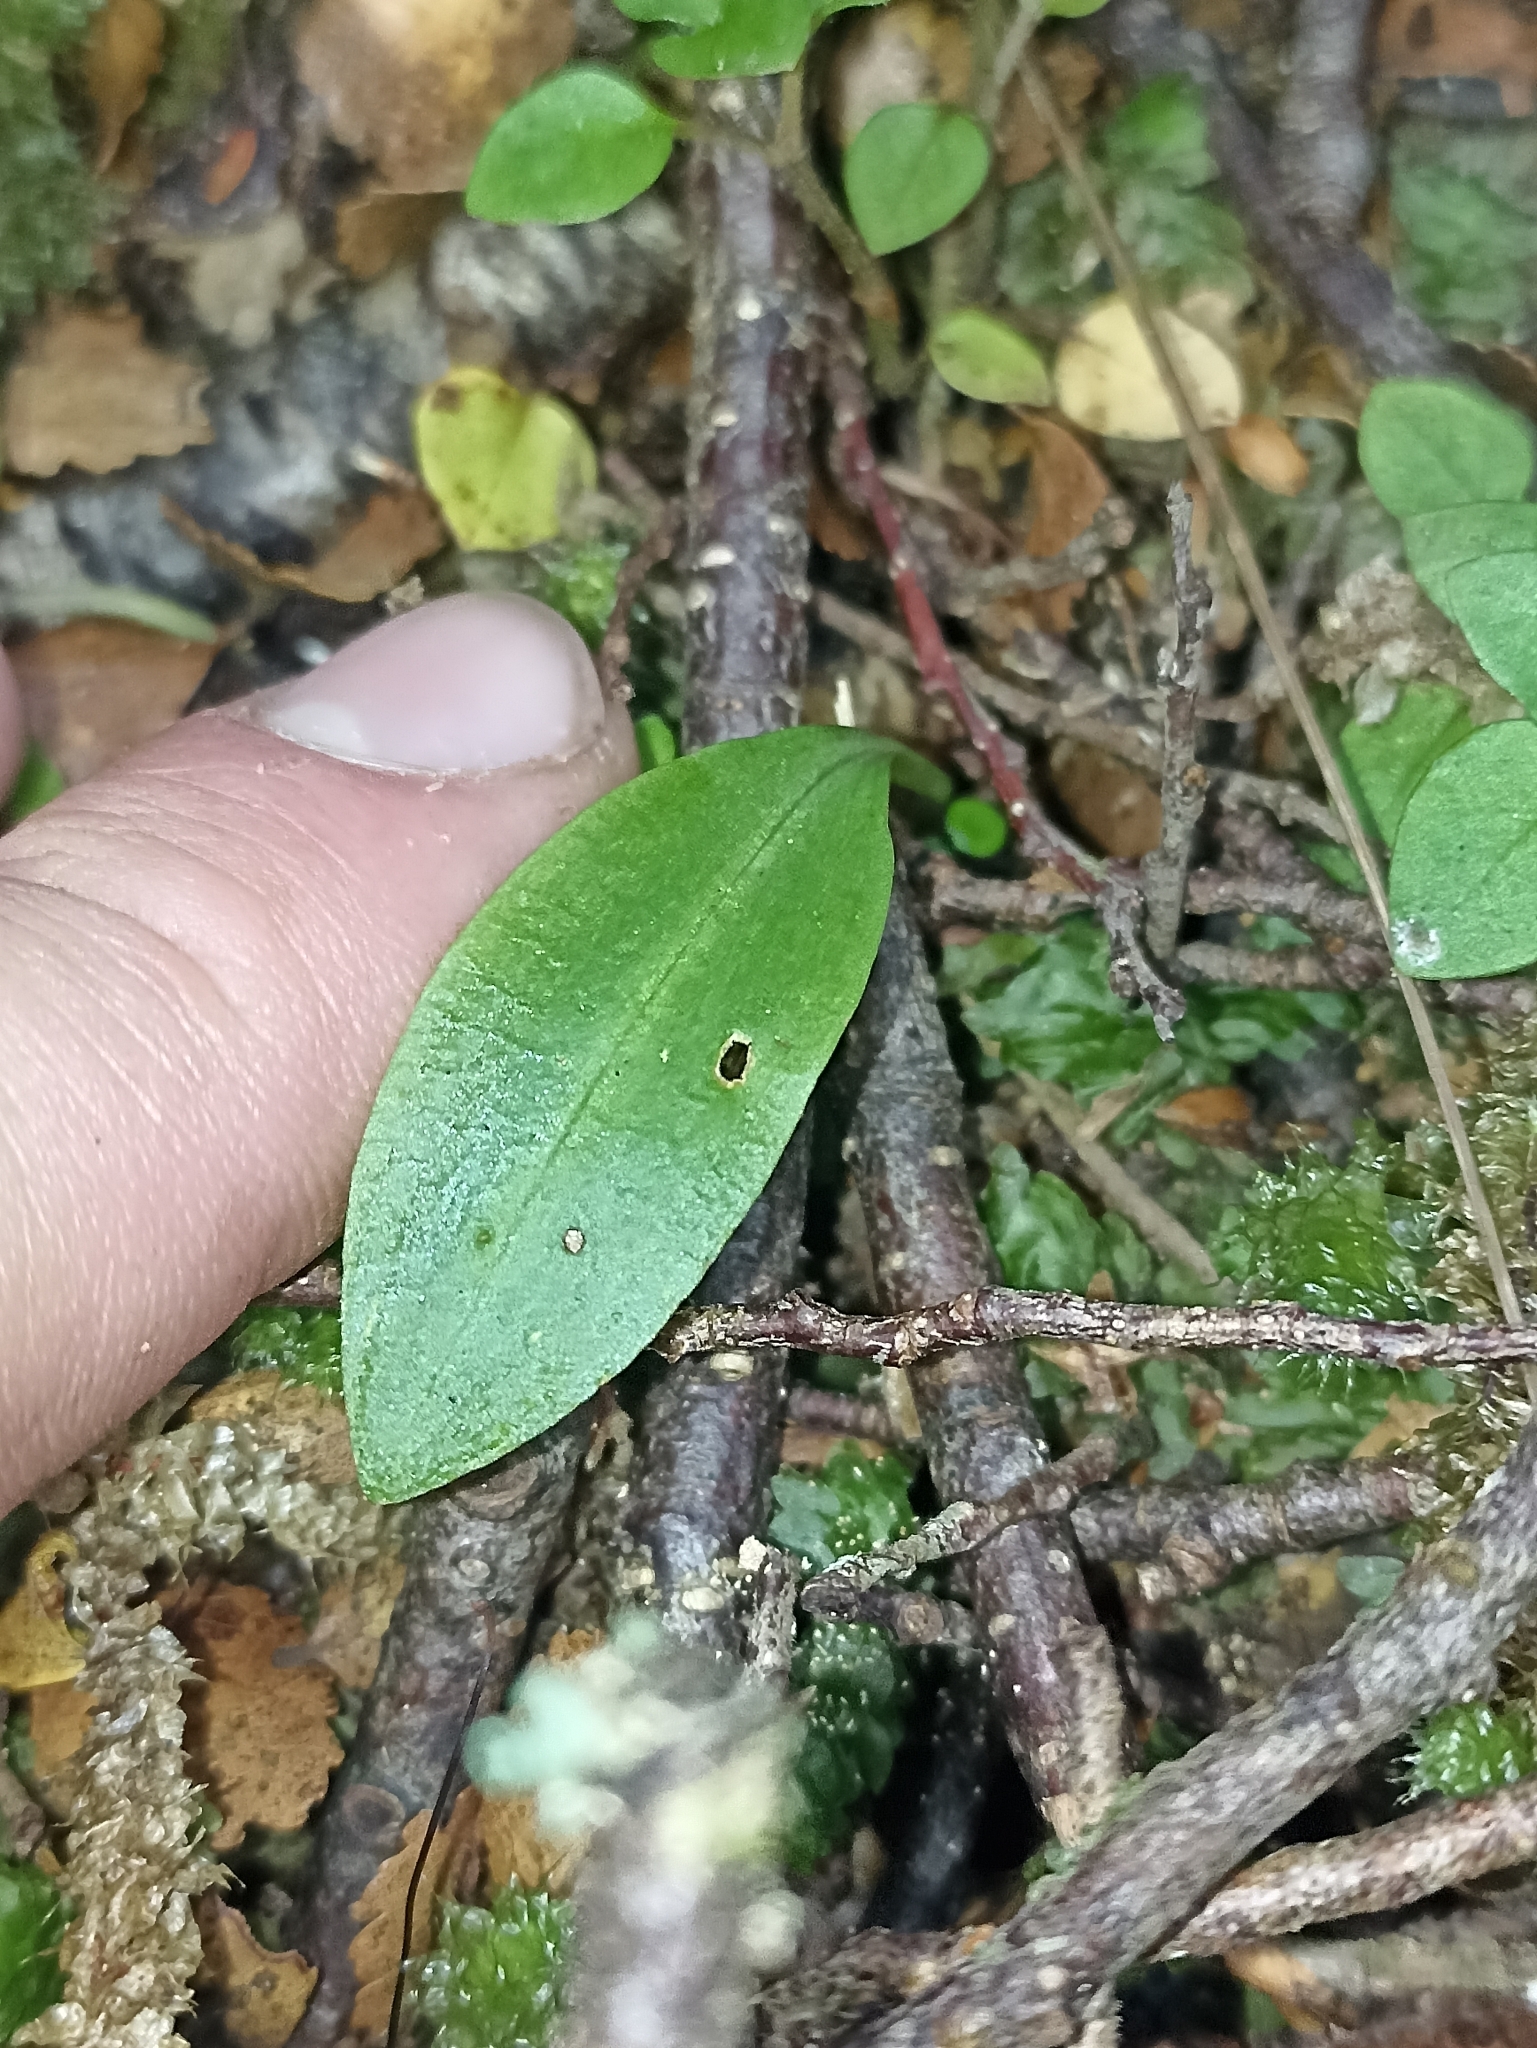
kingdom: Plantae
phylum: Tracheophyta
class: Liliopsida
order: Asparagales
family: Orchidaceae
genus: Chiloglottis
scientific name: Chiloglottis cornuta
